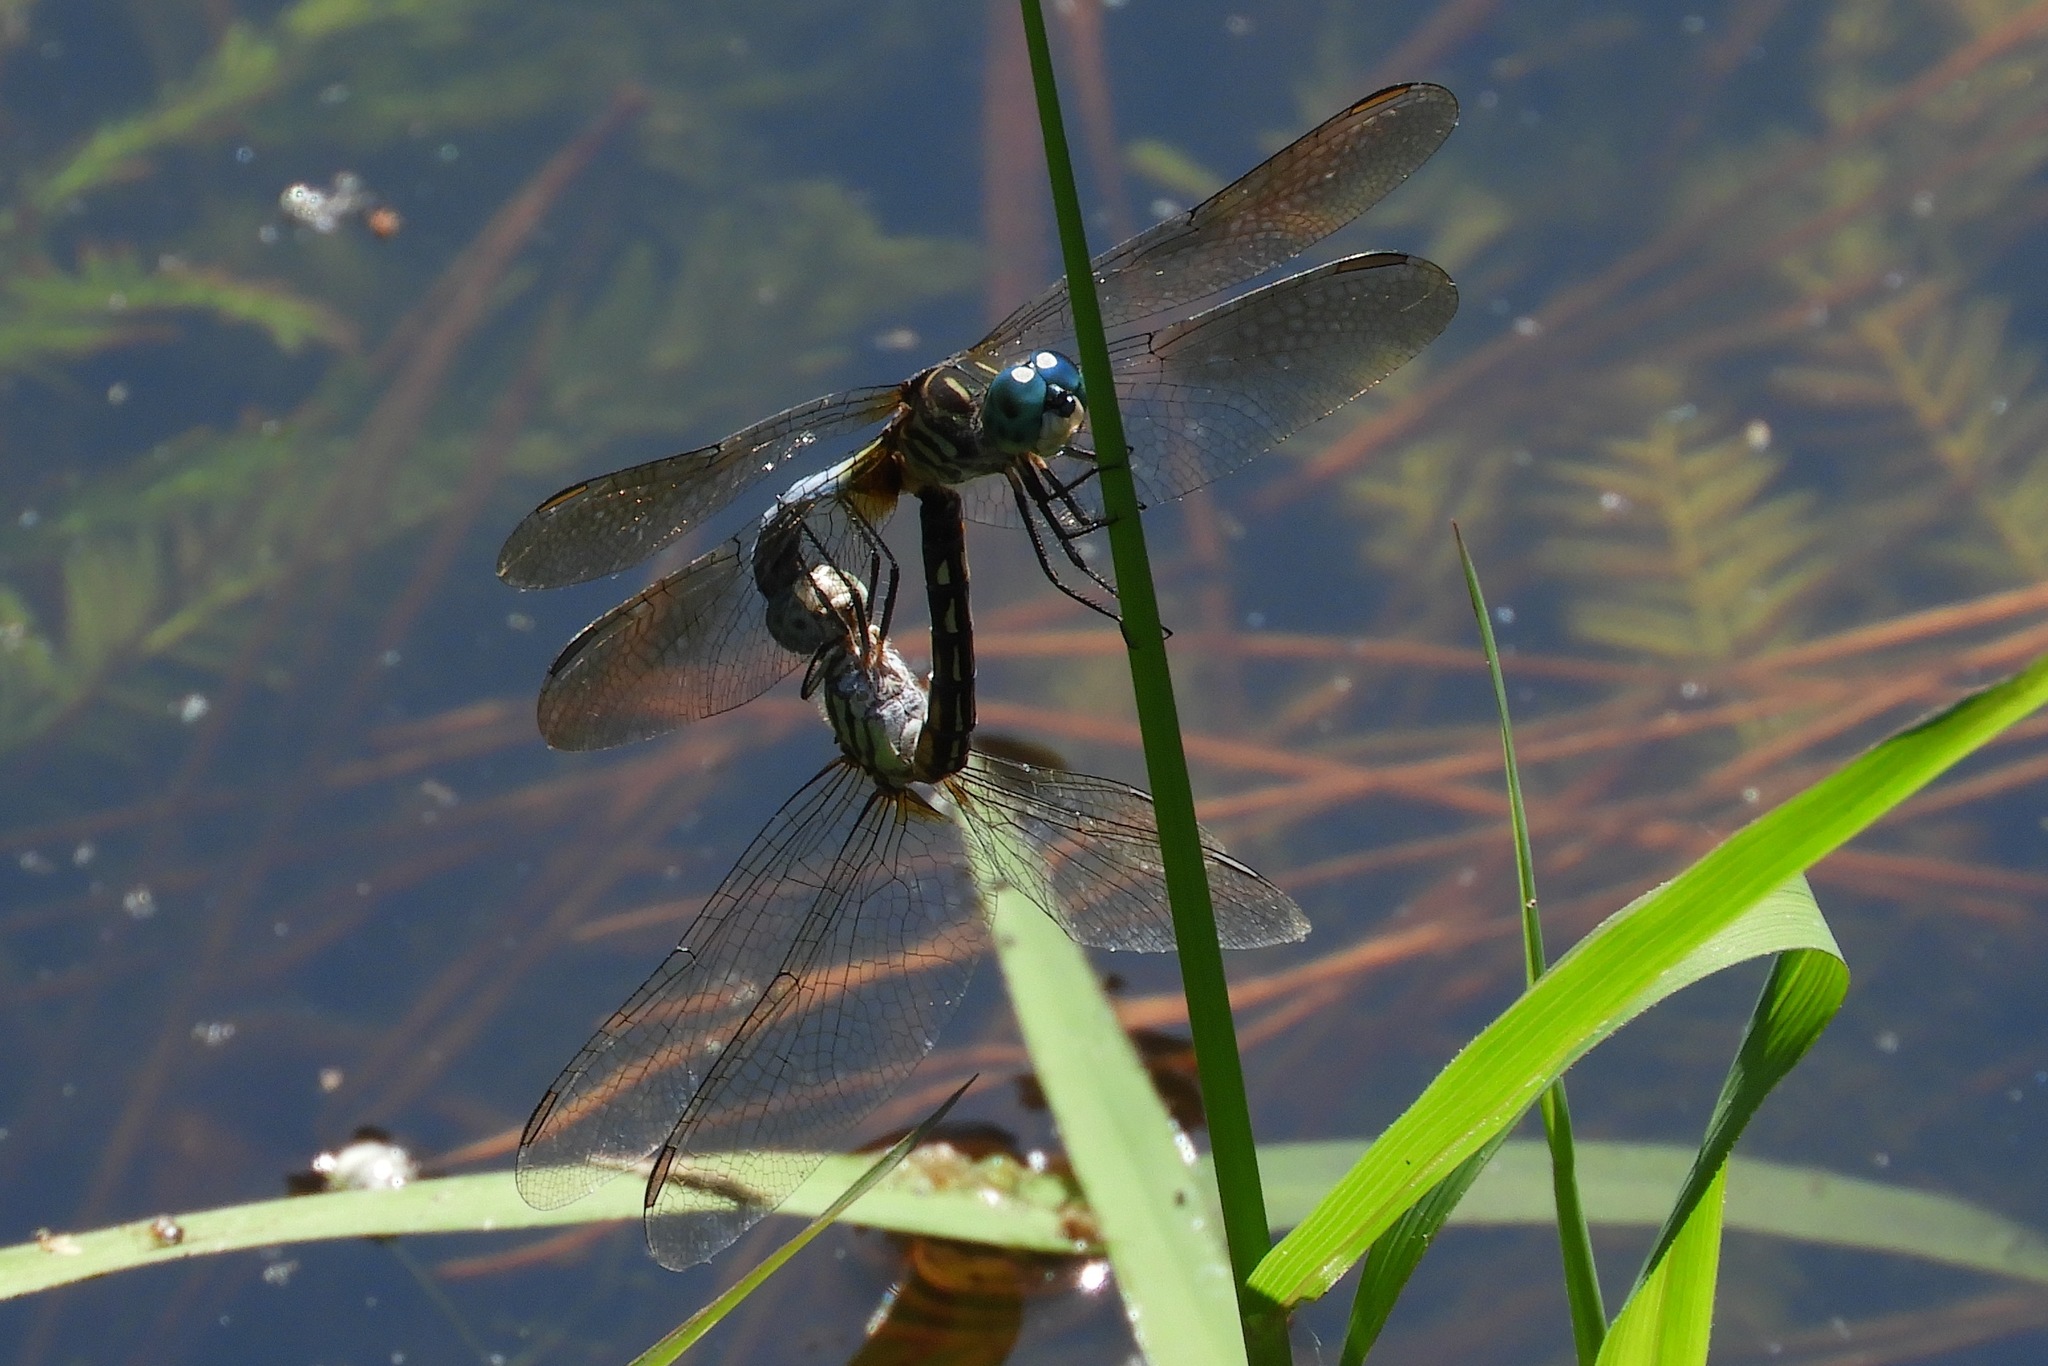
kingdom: Animalia
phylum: Arthropoda
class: Insecta
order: Odonata
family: Libellulidae
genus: Pachydiplax
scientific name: Pachydiplax longipennis
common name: Blue dasher
